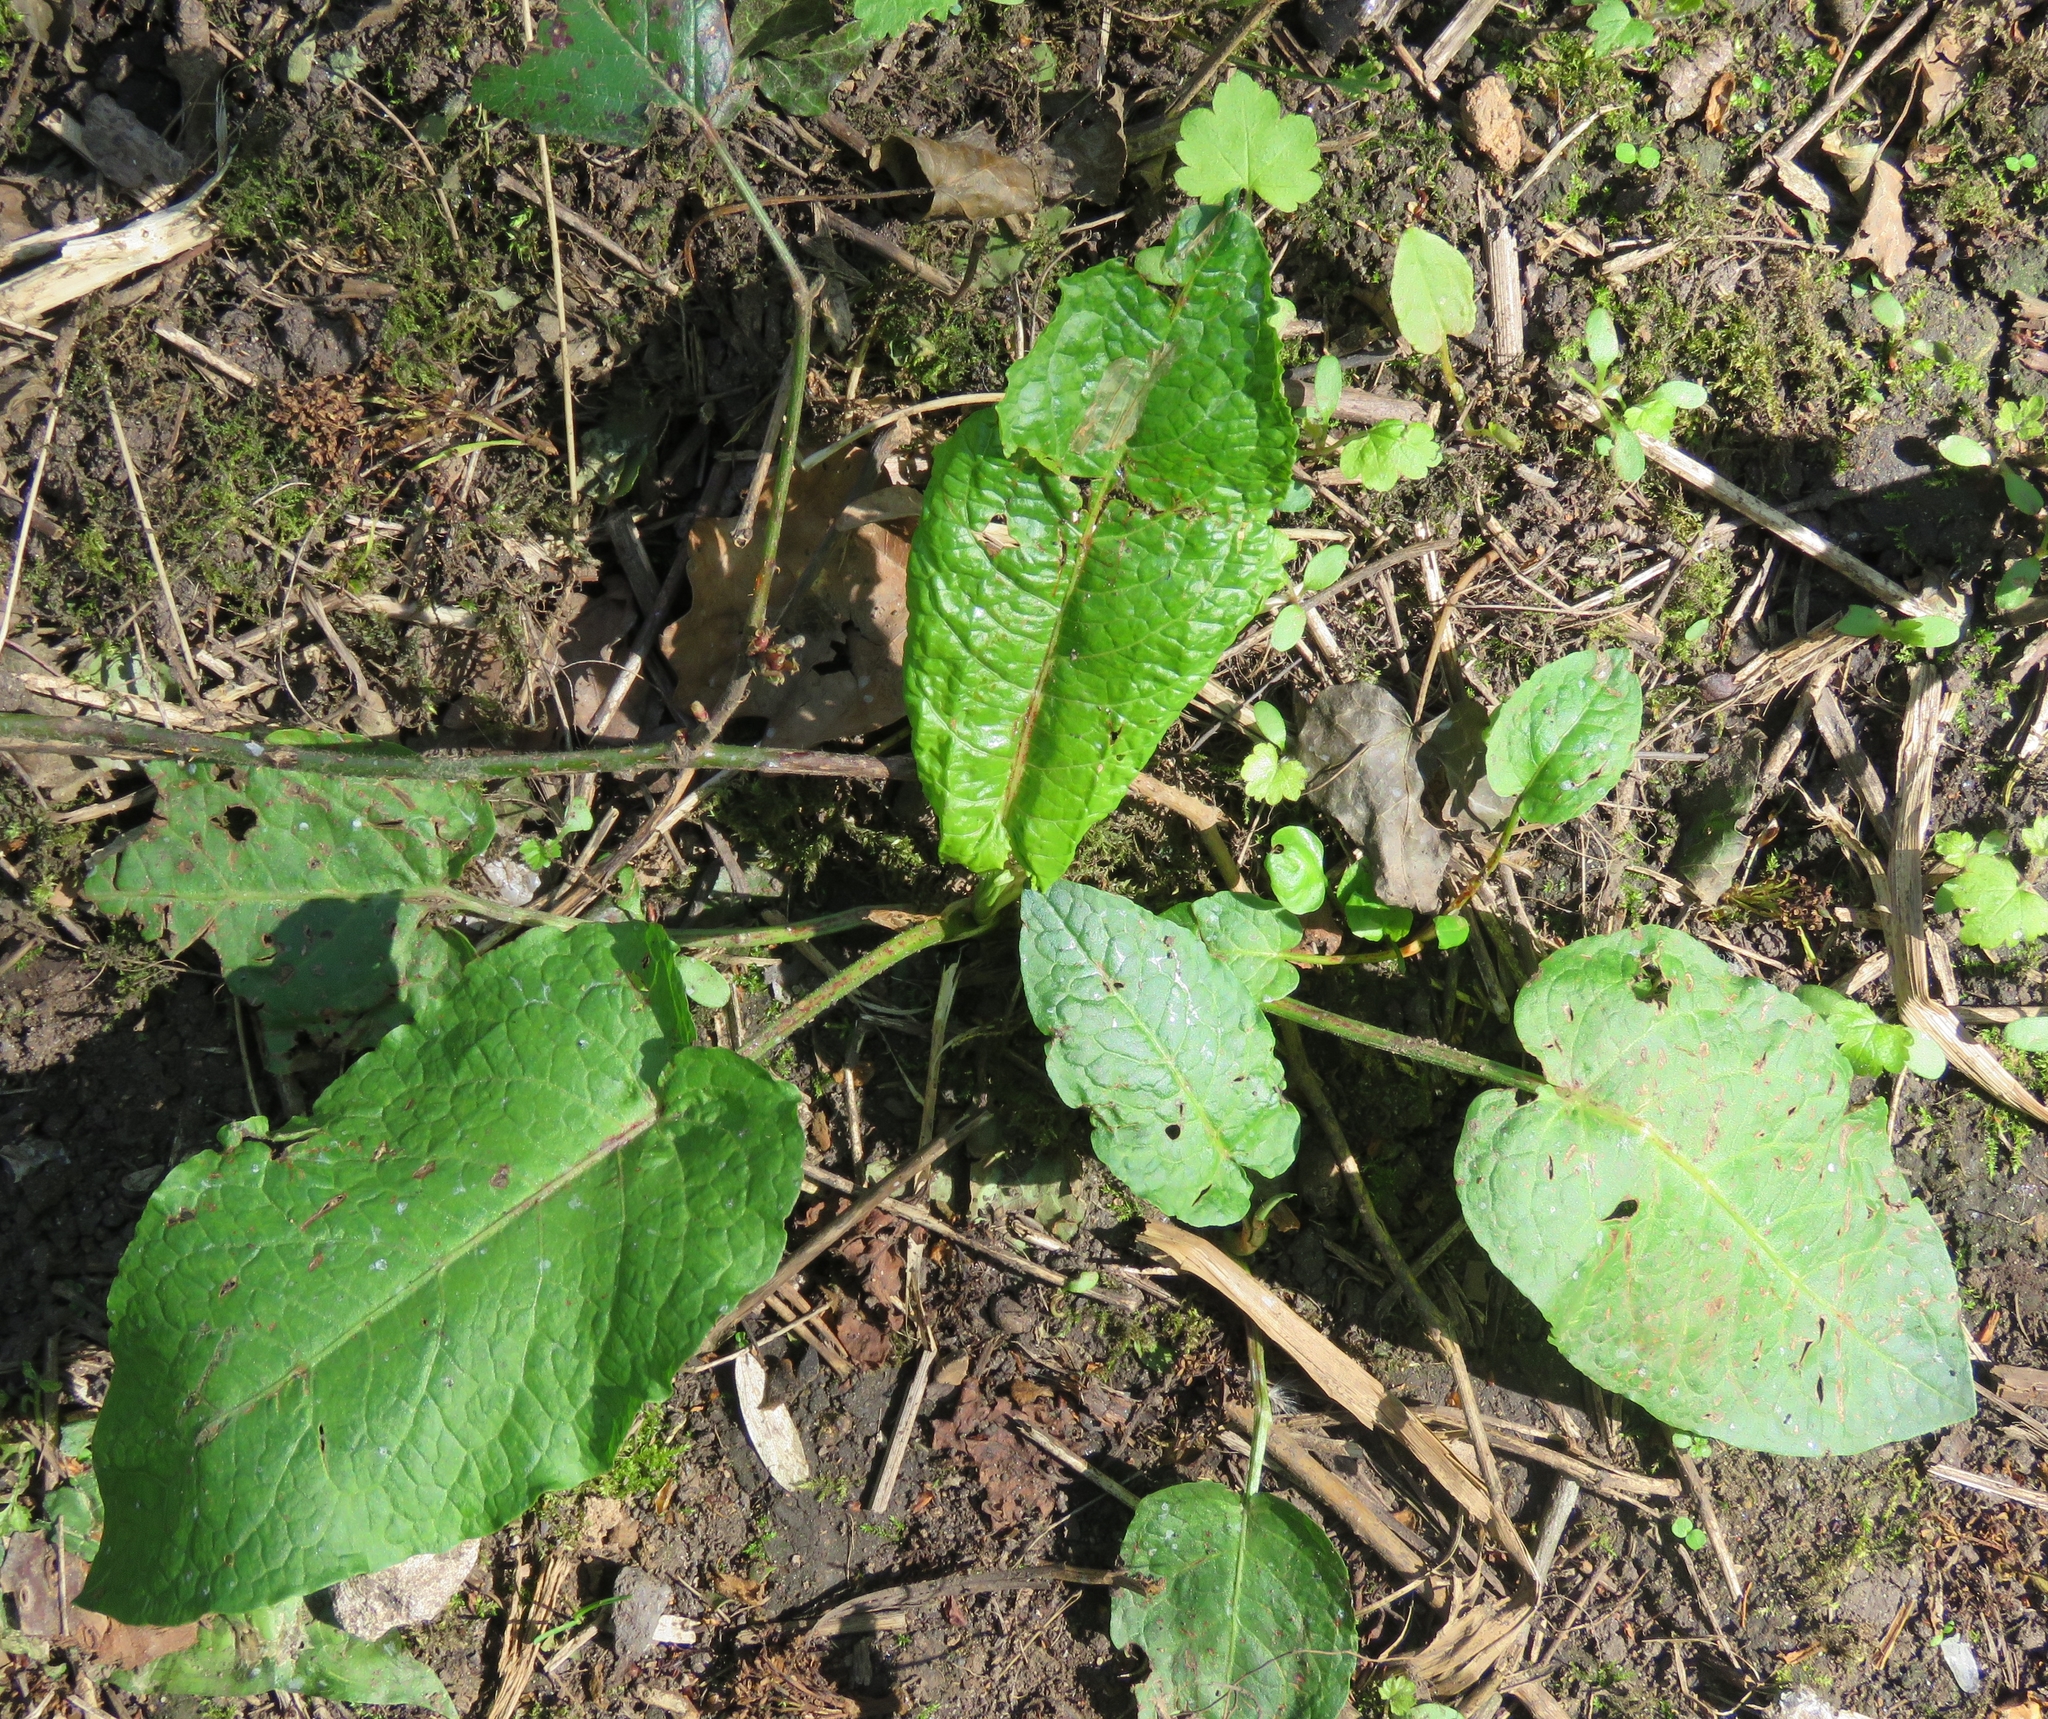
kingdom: Plantae
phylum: Tracheophyta
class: Magnoliopsida
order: Caryophyllales
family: Polygonaceae
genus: Rumex
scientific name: Rumex obtusifolius
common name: Bitter dock
